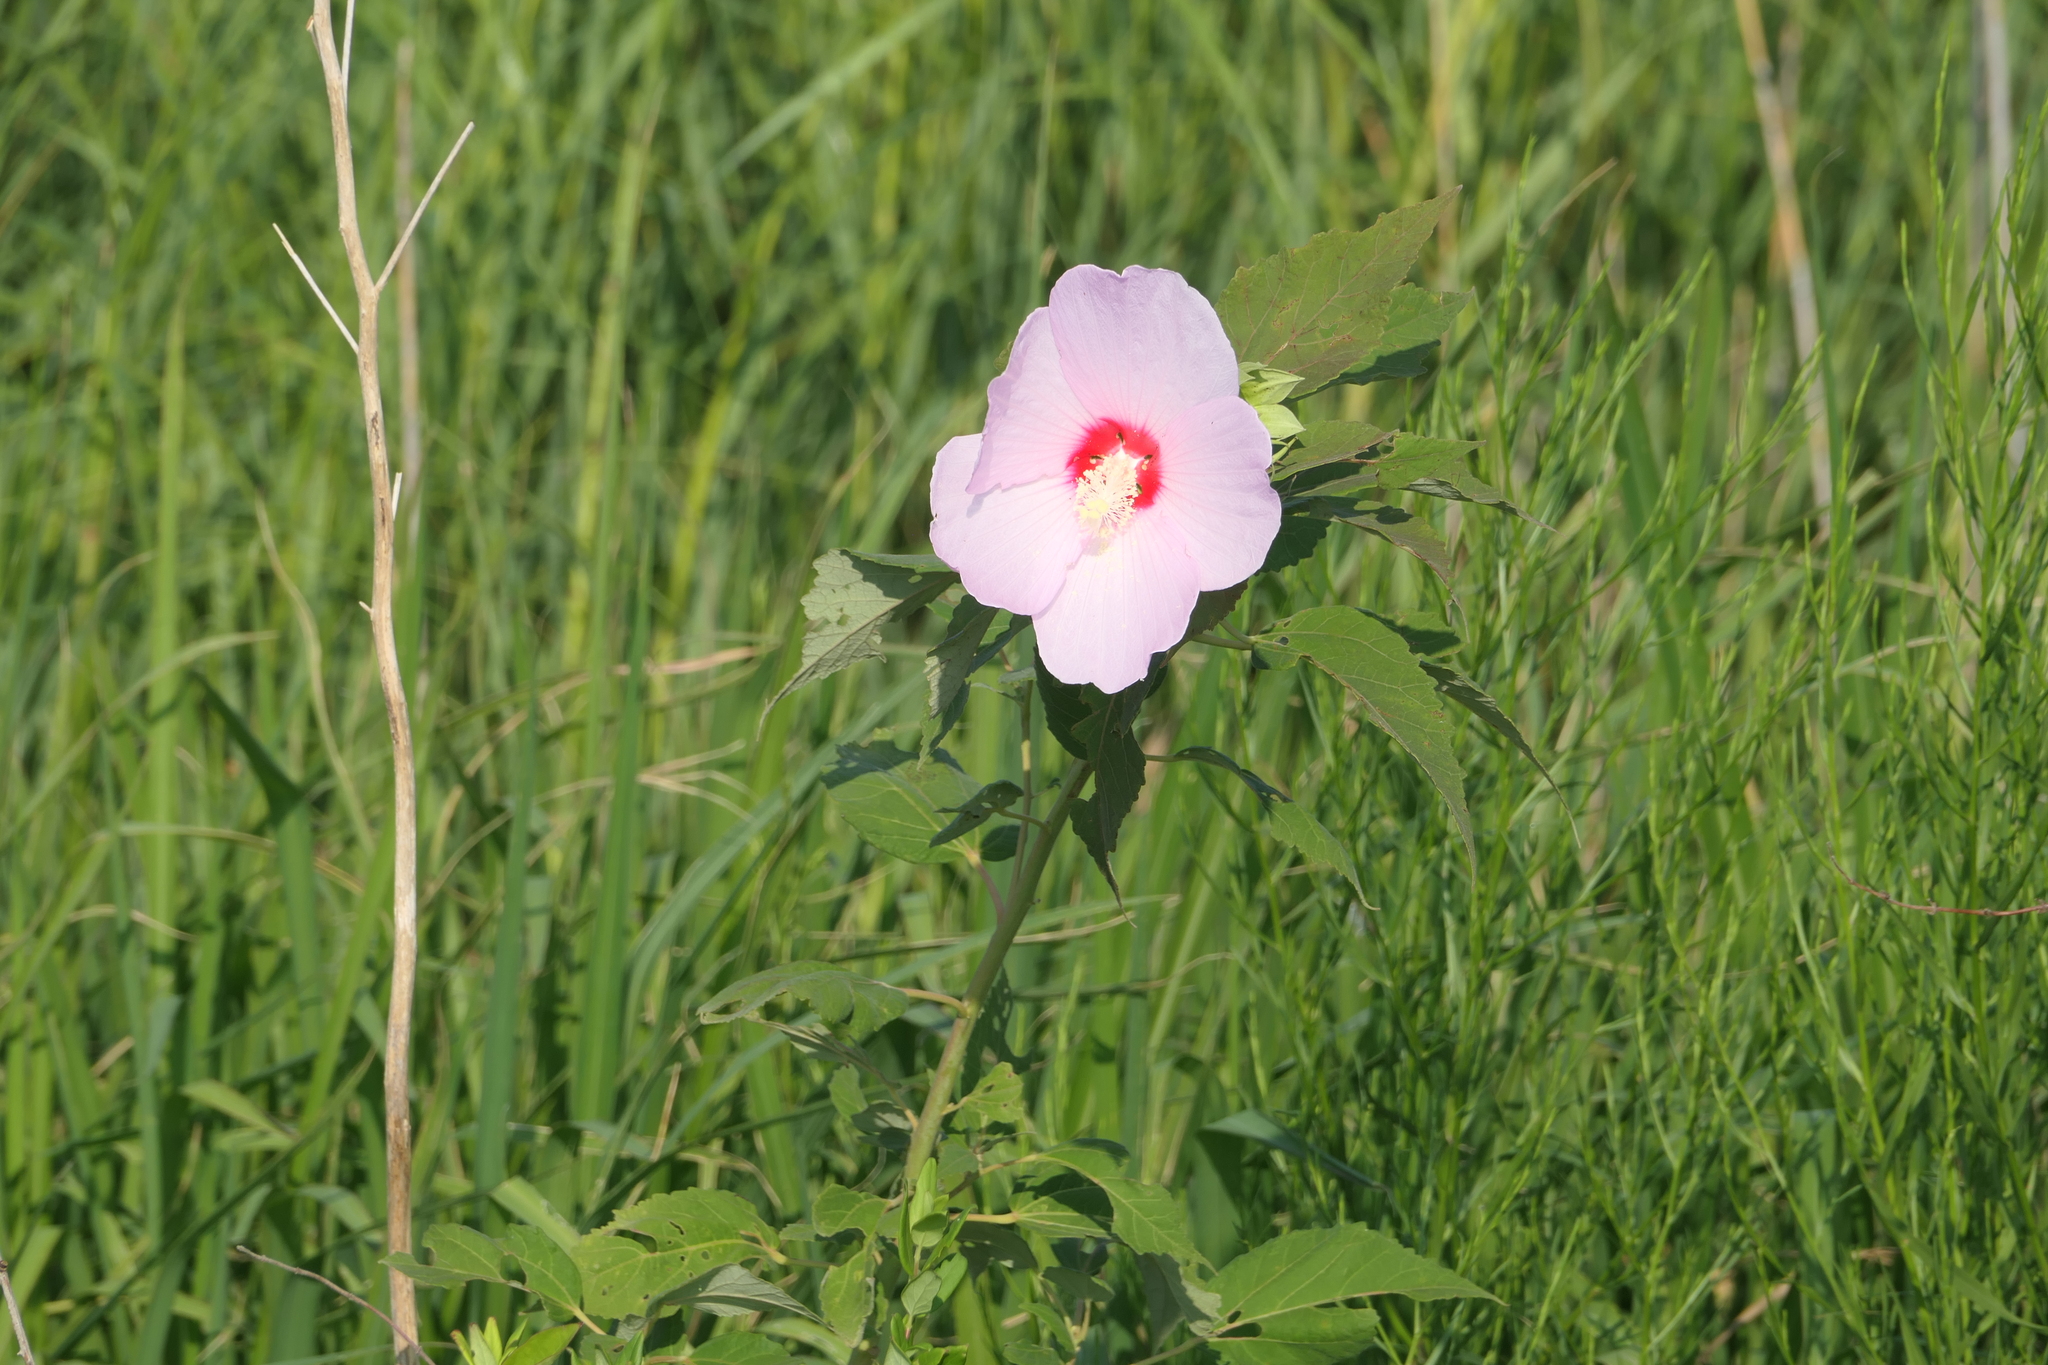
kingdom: Plantae
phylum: Tracheophyta
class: Magnoliopsida
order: Malvales
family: Malvaceae
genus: Hibiscus
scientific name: Hibiscus moscheutos
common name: Common rose-mallow
